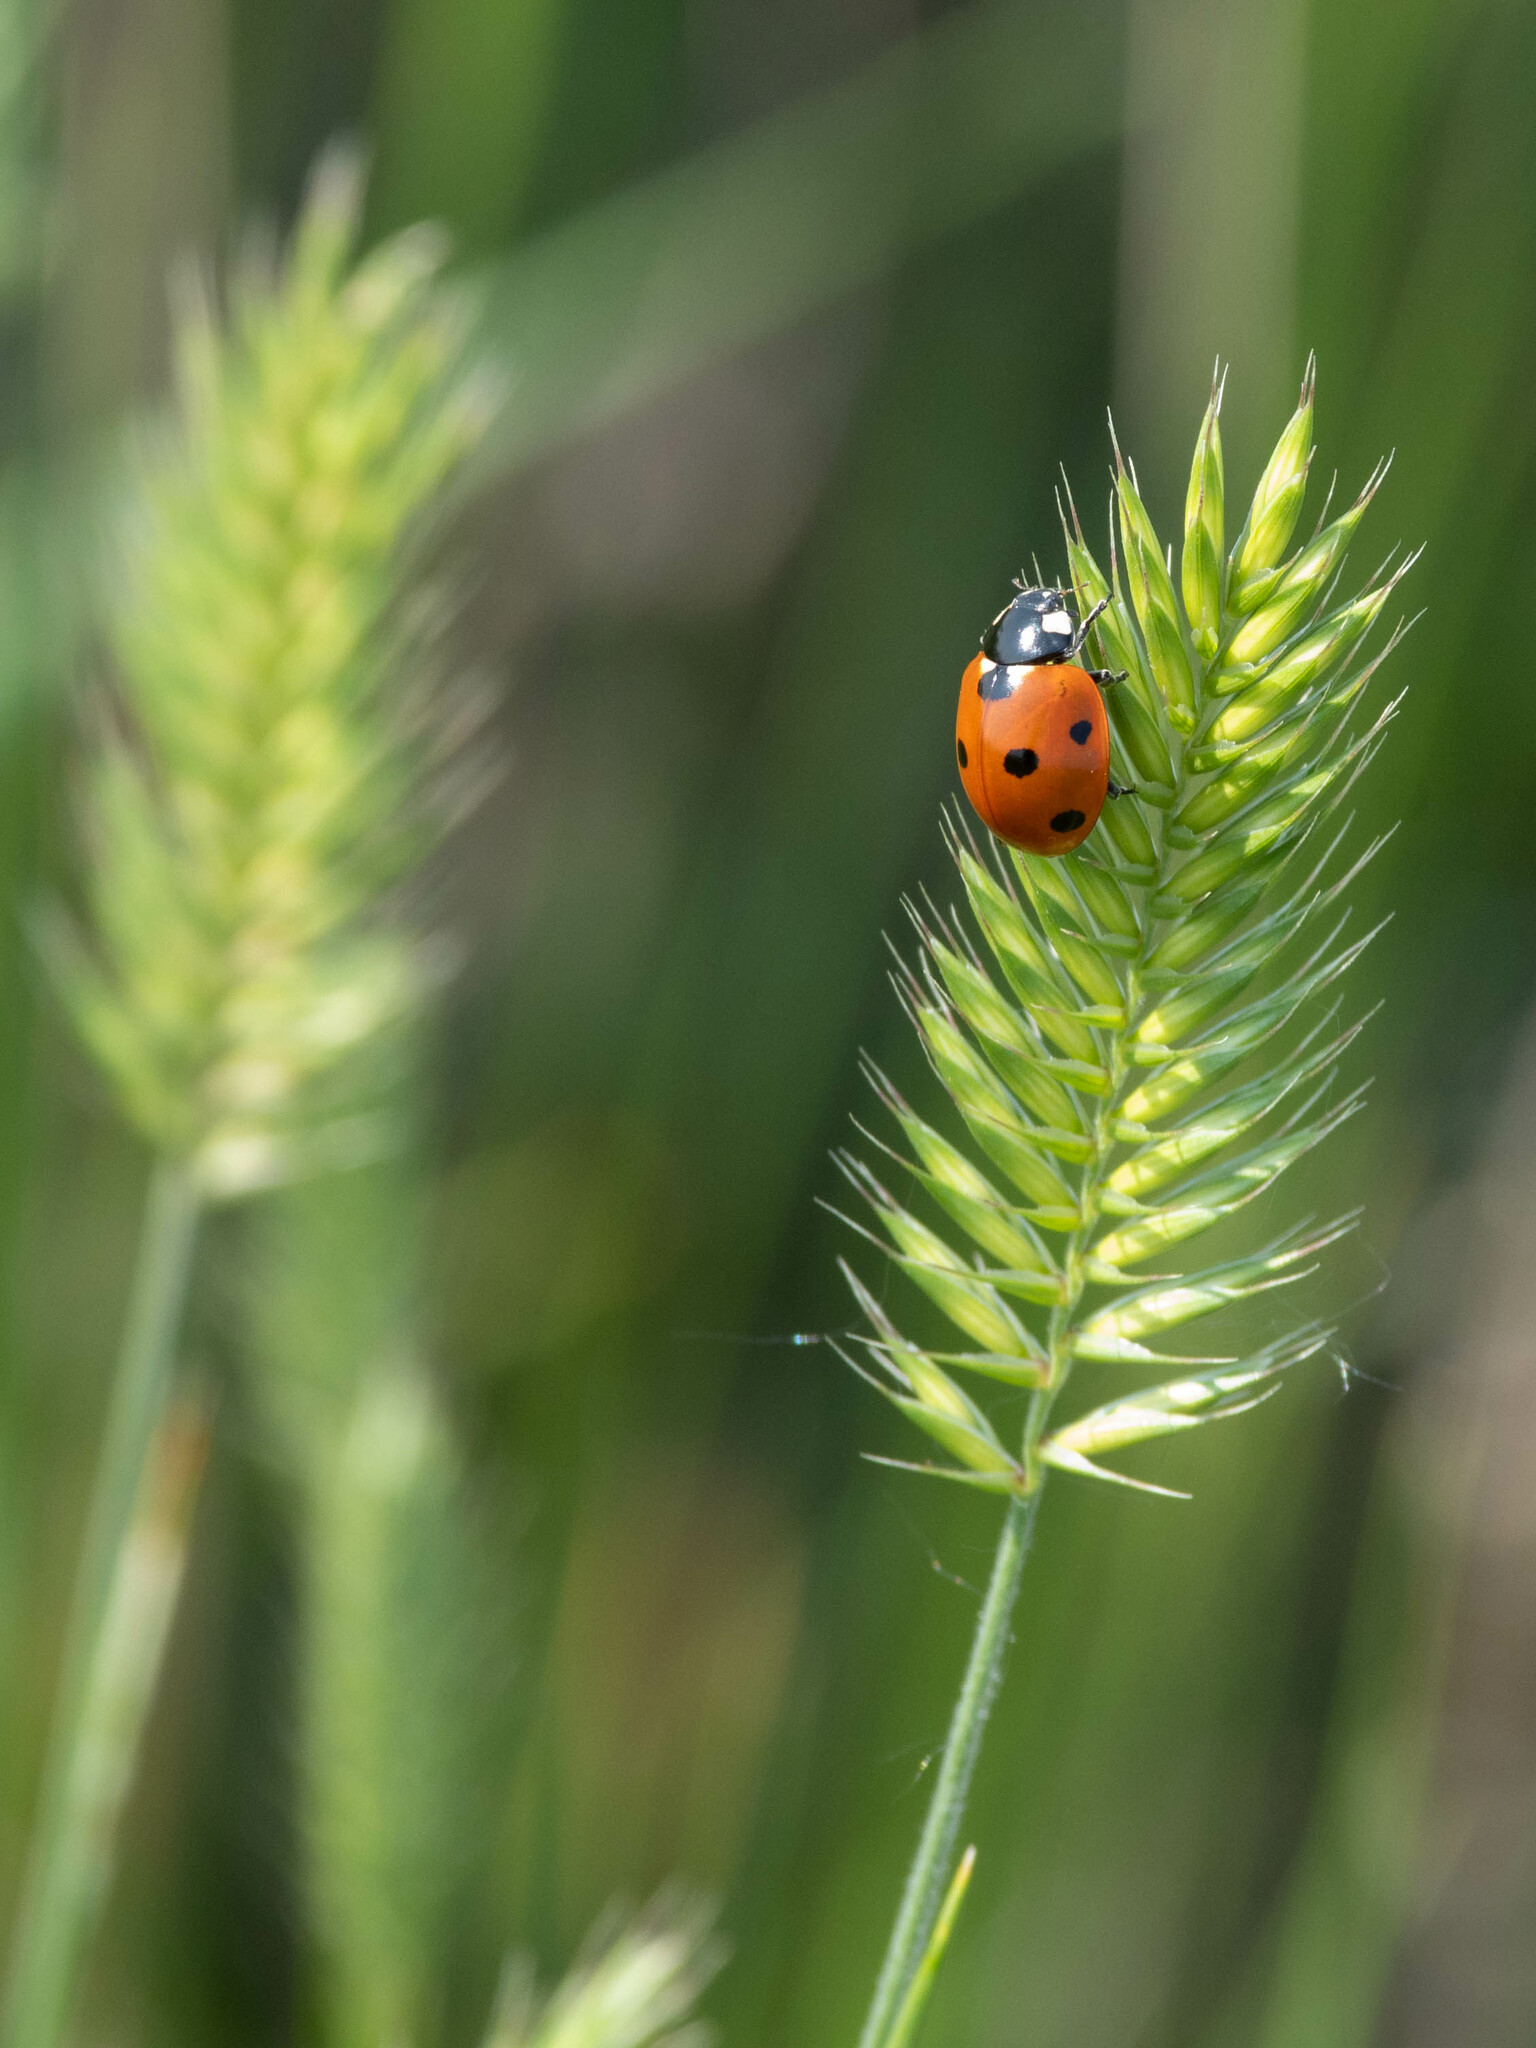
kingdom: Animalia
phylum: Arthropoda
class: Insecta
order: Coleoptera
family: Coccinellidae
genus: Coccinella
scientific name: Coccinella septempunctata
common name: Sevenspotted lady beetle
